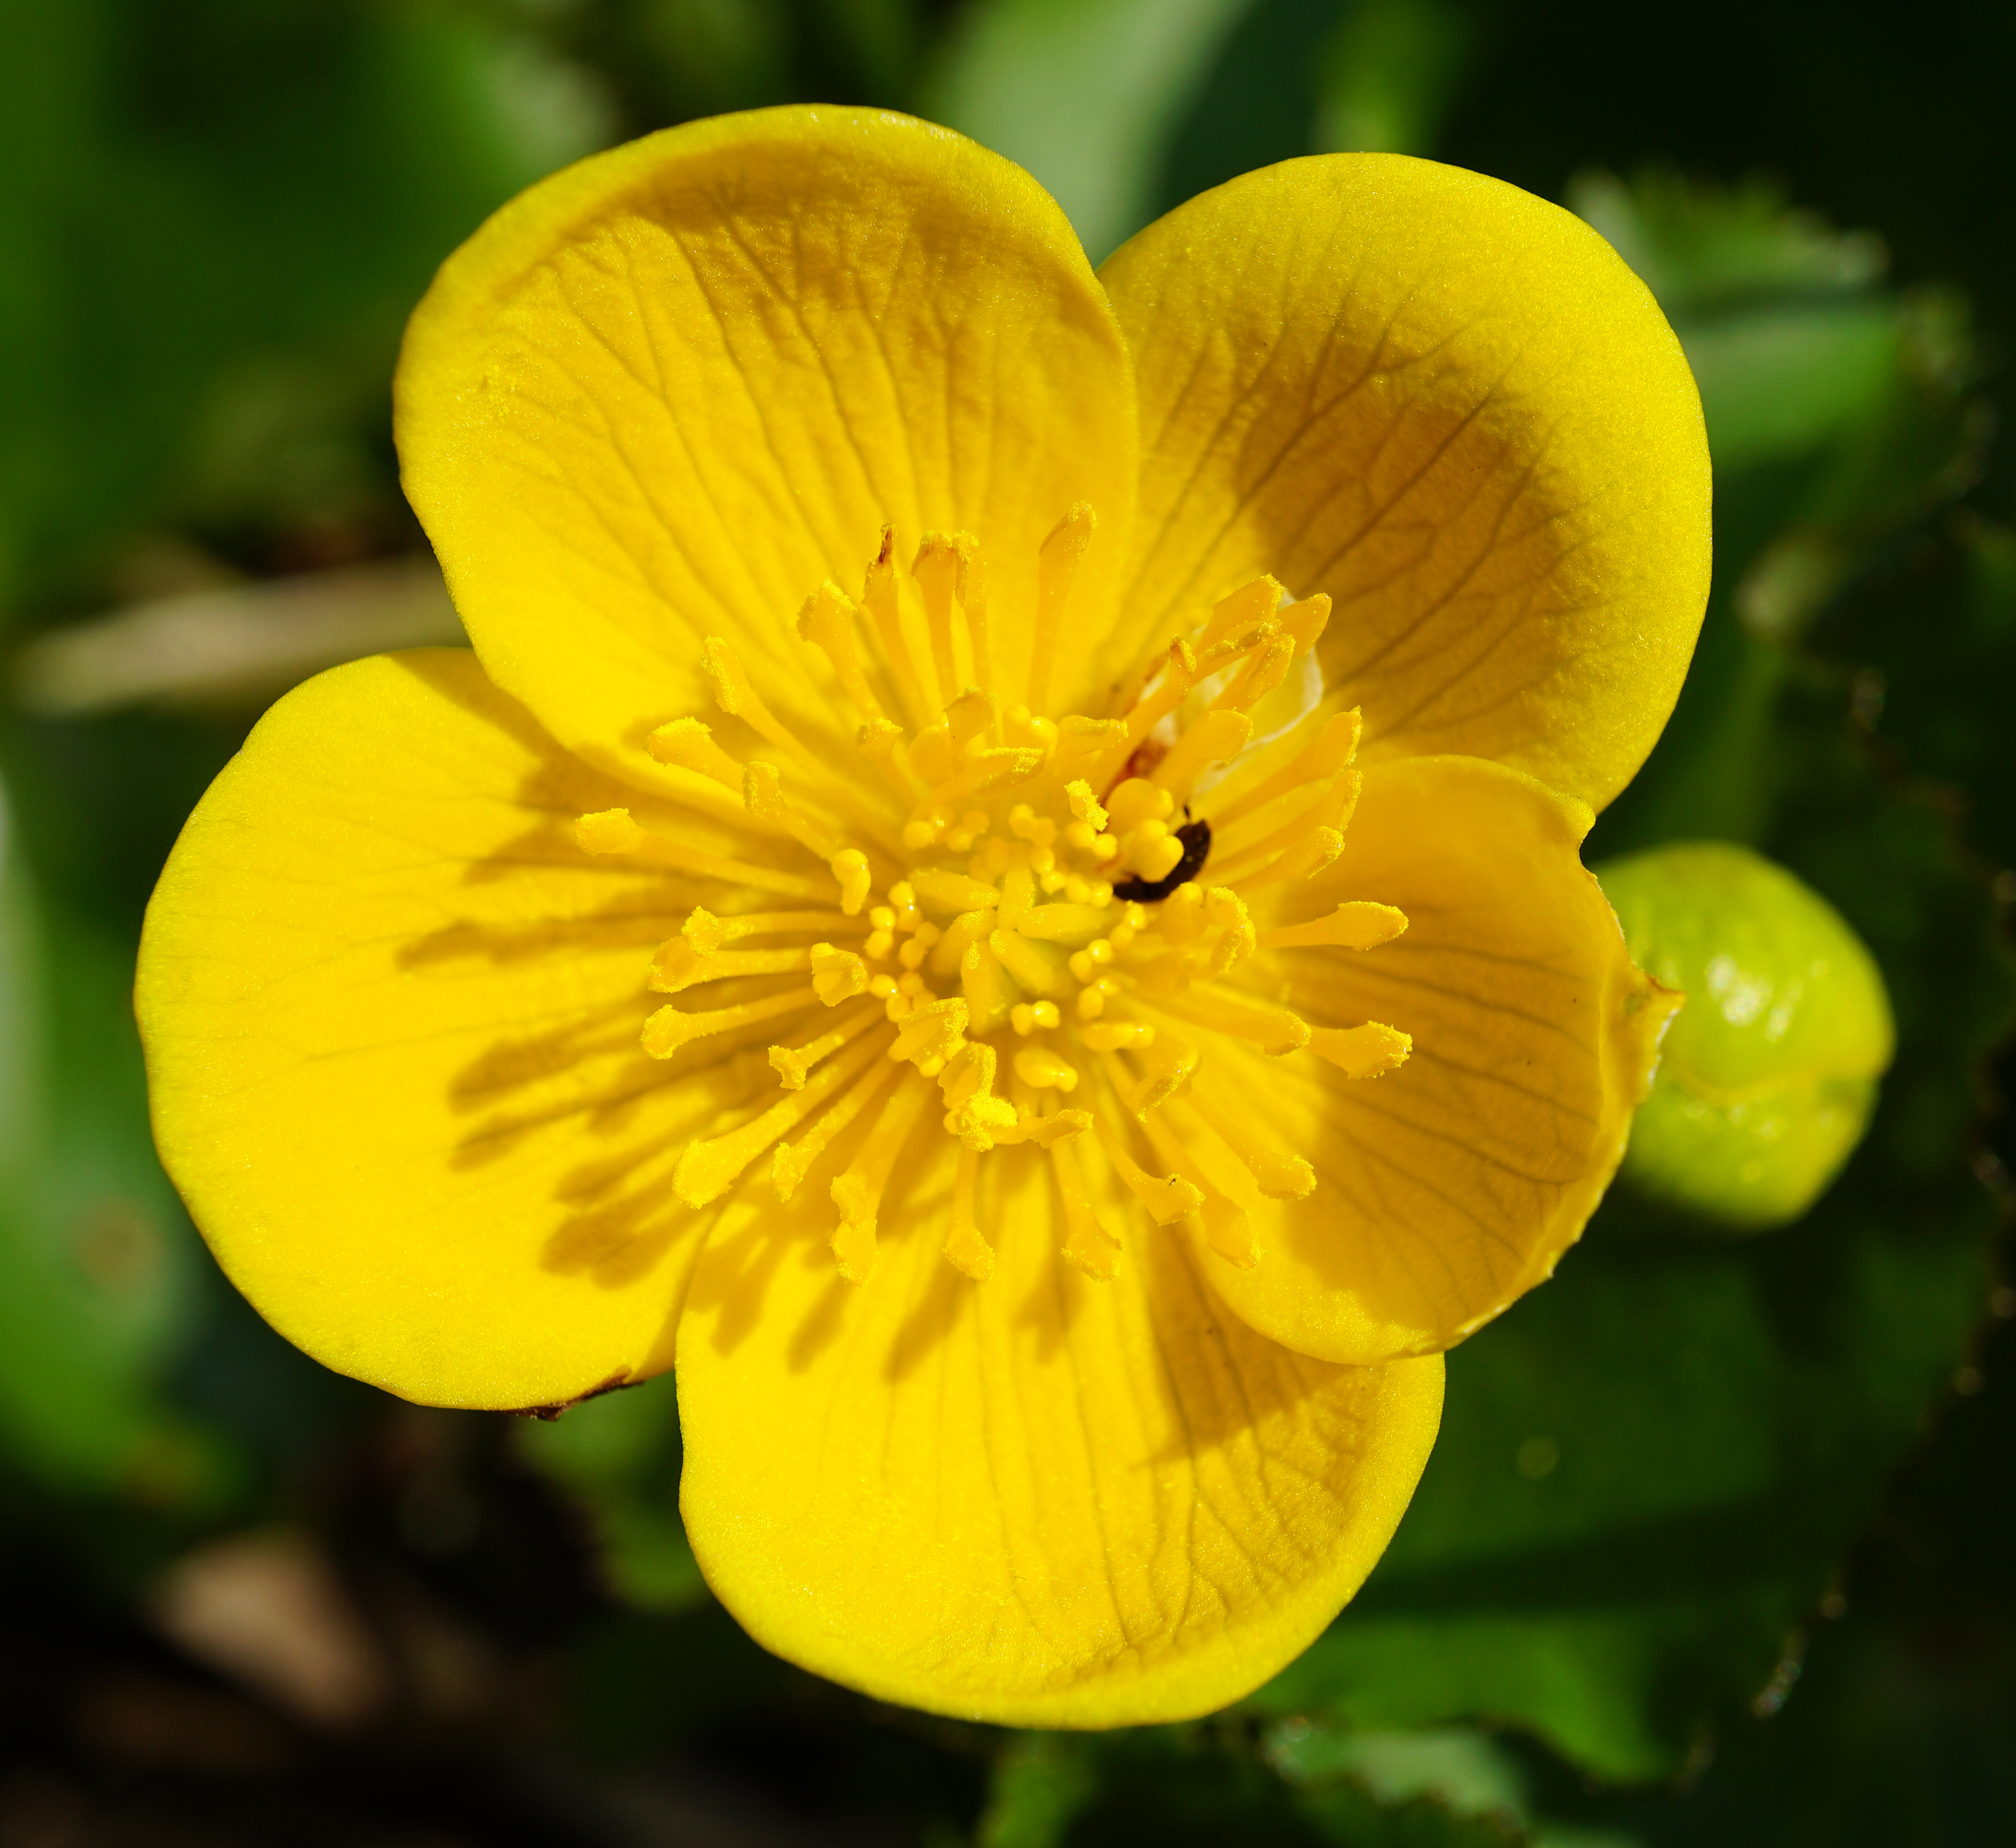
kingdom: Plantae
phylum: Tracheophyta
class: Magnoliopsida
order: Ranunculales
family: Ranunculaceae
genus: Caltha
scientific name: Caltha palustris
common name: Marsh marigold
